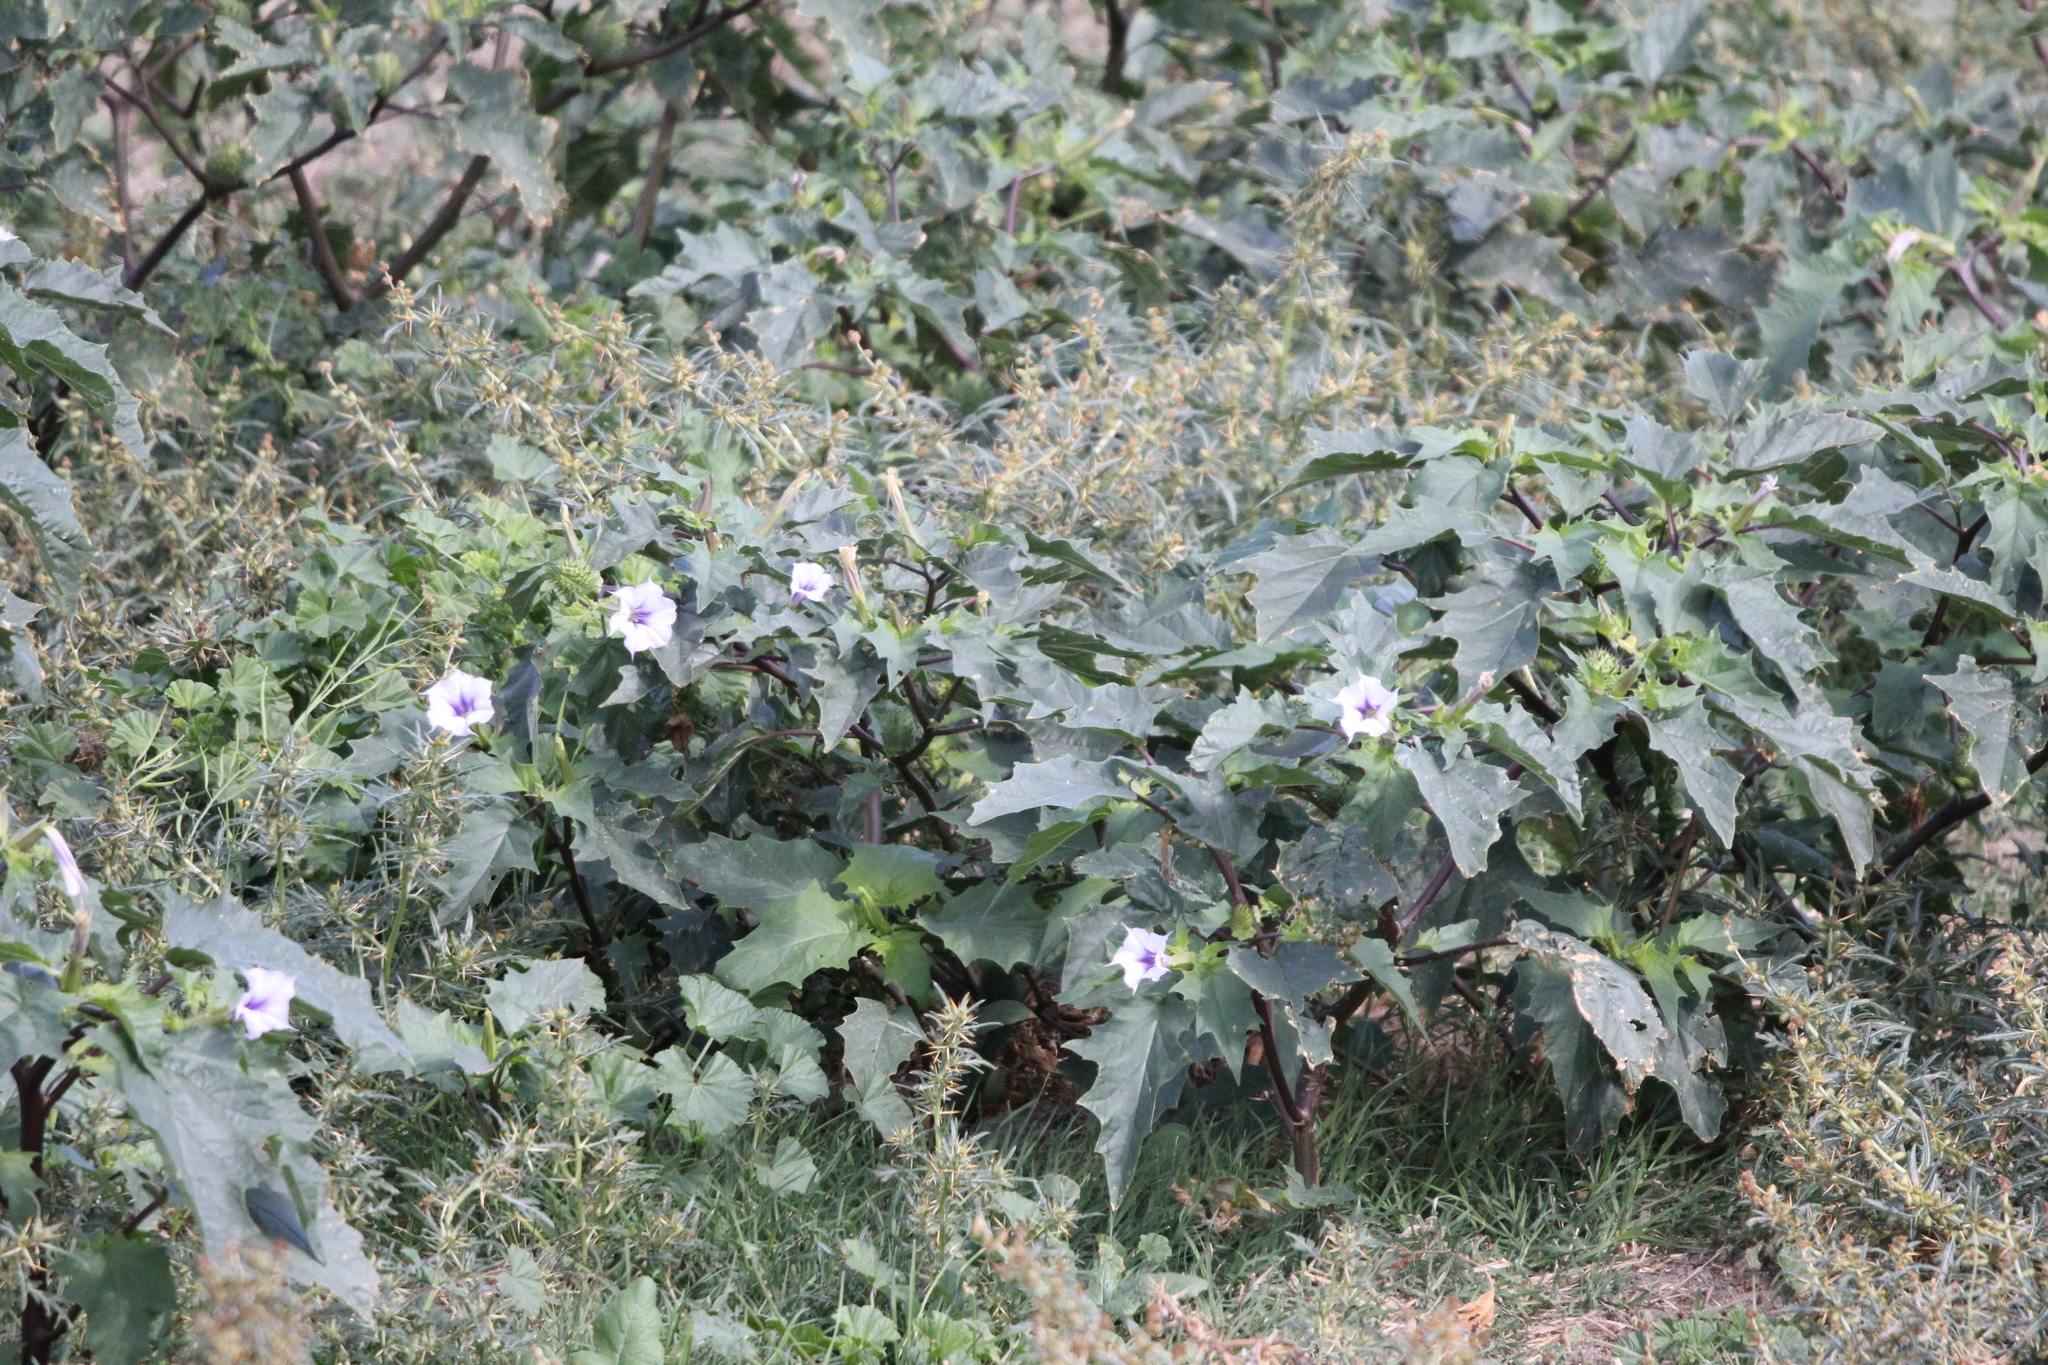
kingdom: Plantae
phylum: Tracheophyta
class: Magnoliopsida
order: Solanales
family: Solanaceae
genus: Datura
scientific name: Datura stramonium
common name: Thorn-apple
